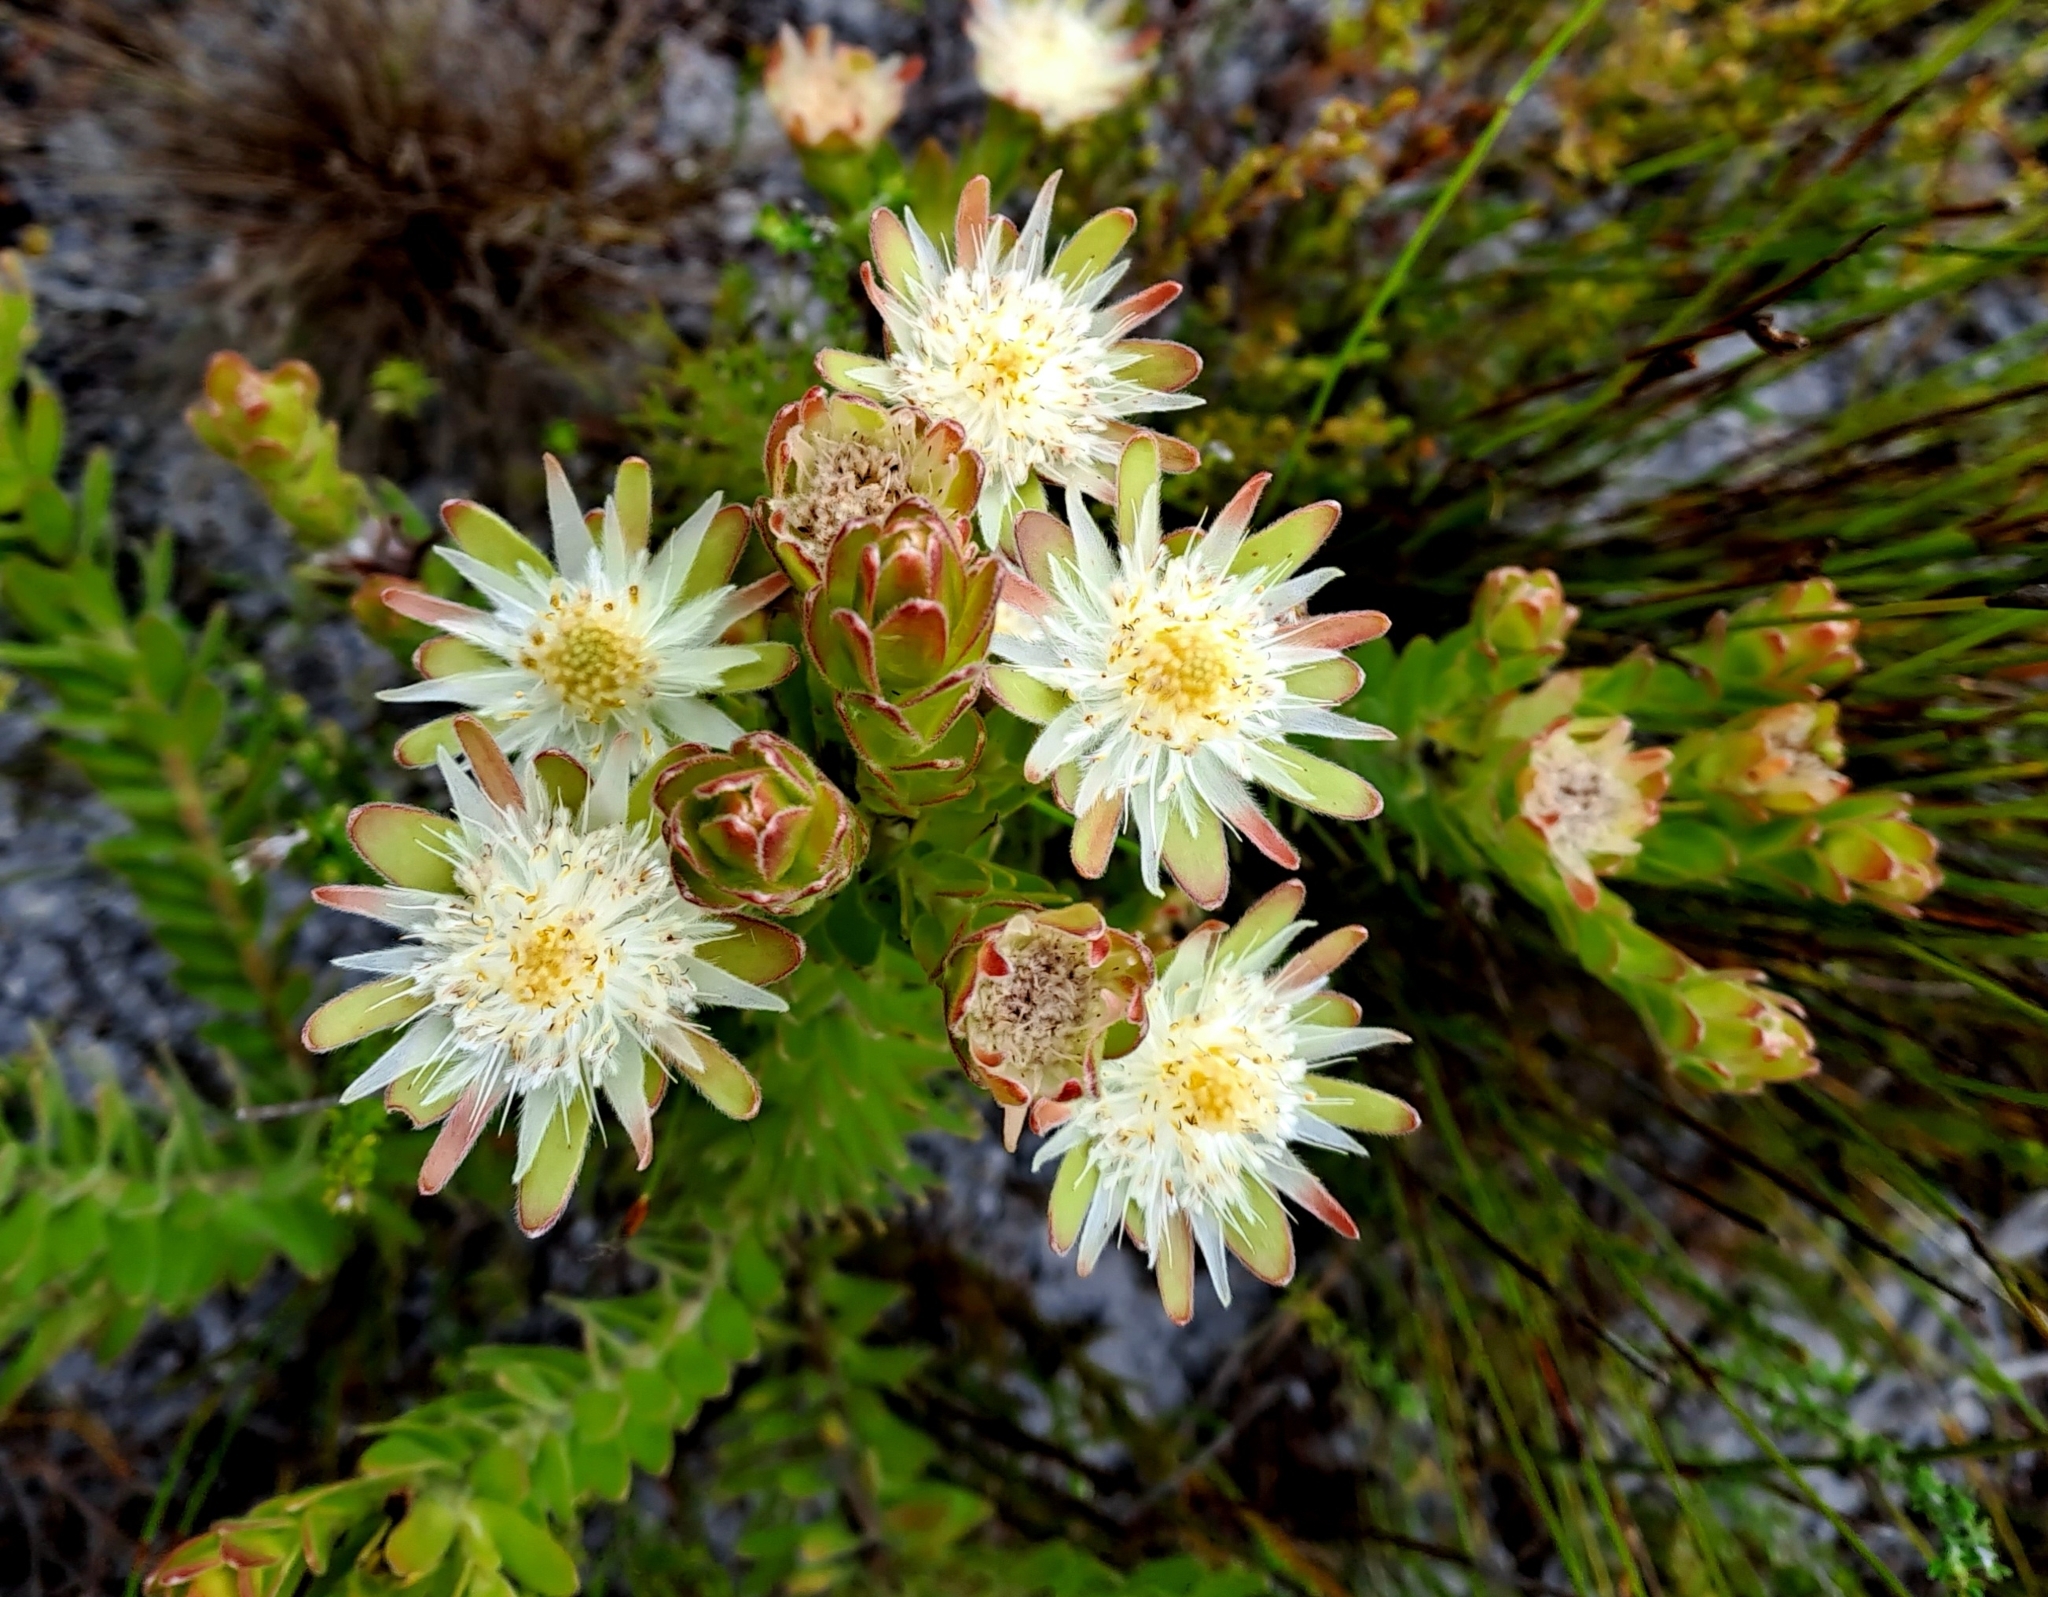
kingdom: Plantae
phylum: Tracheophyta
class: Magnoliopsida
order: Proteales
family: Proteaceae
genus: Diastella
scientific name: Diastella thymelaeoides
